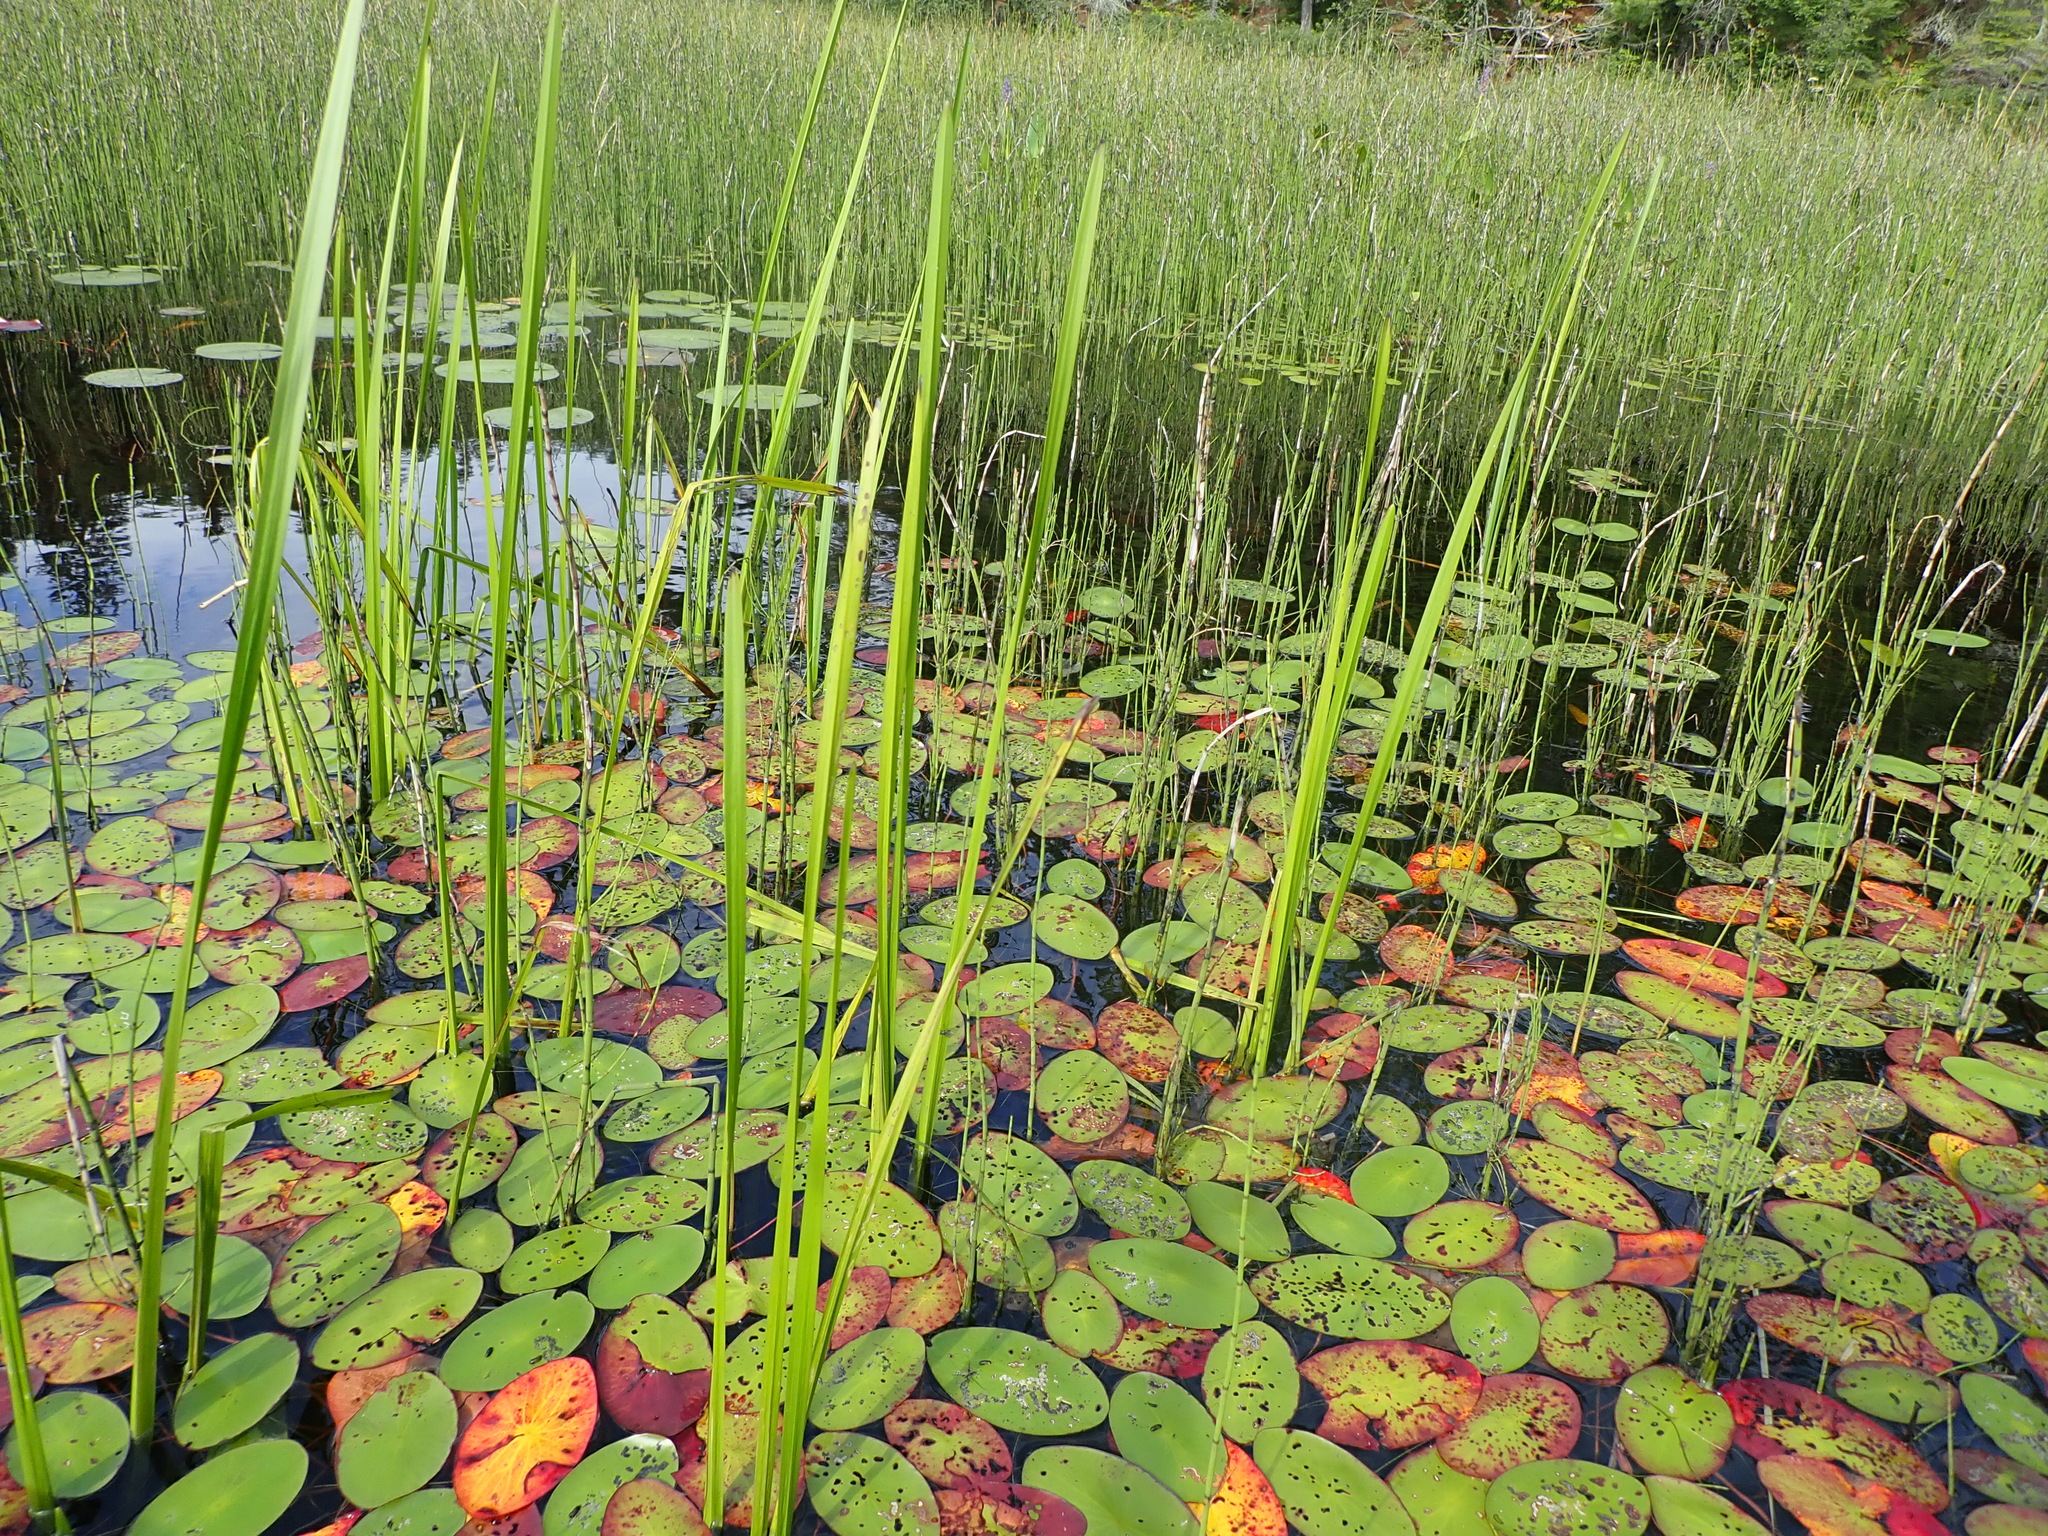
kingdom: Plantae
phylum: Tracheophyta
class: Magnoliopsida
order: Nymphaeales
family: Cabombaceae
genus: Brasenia
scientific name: Brasenia schreberi
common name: Water-shield
